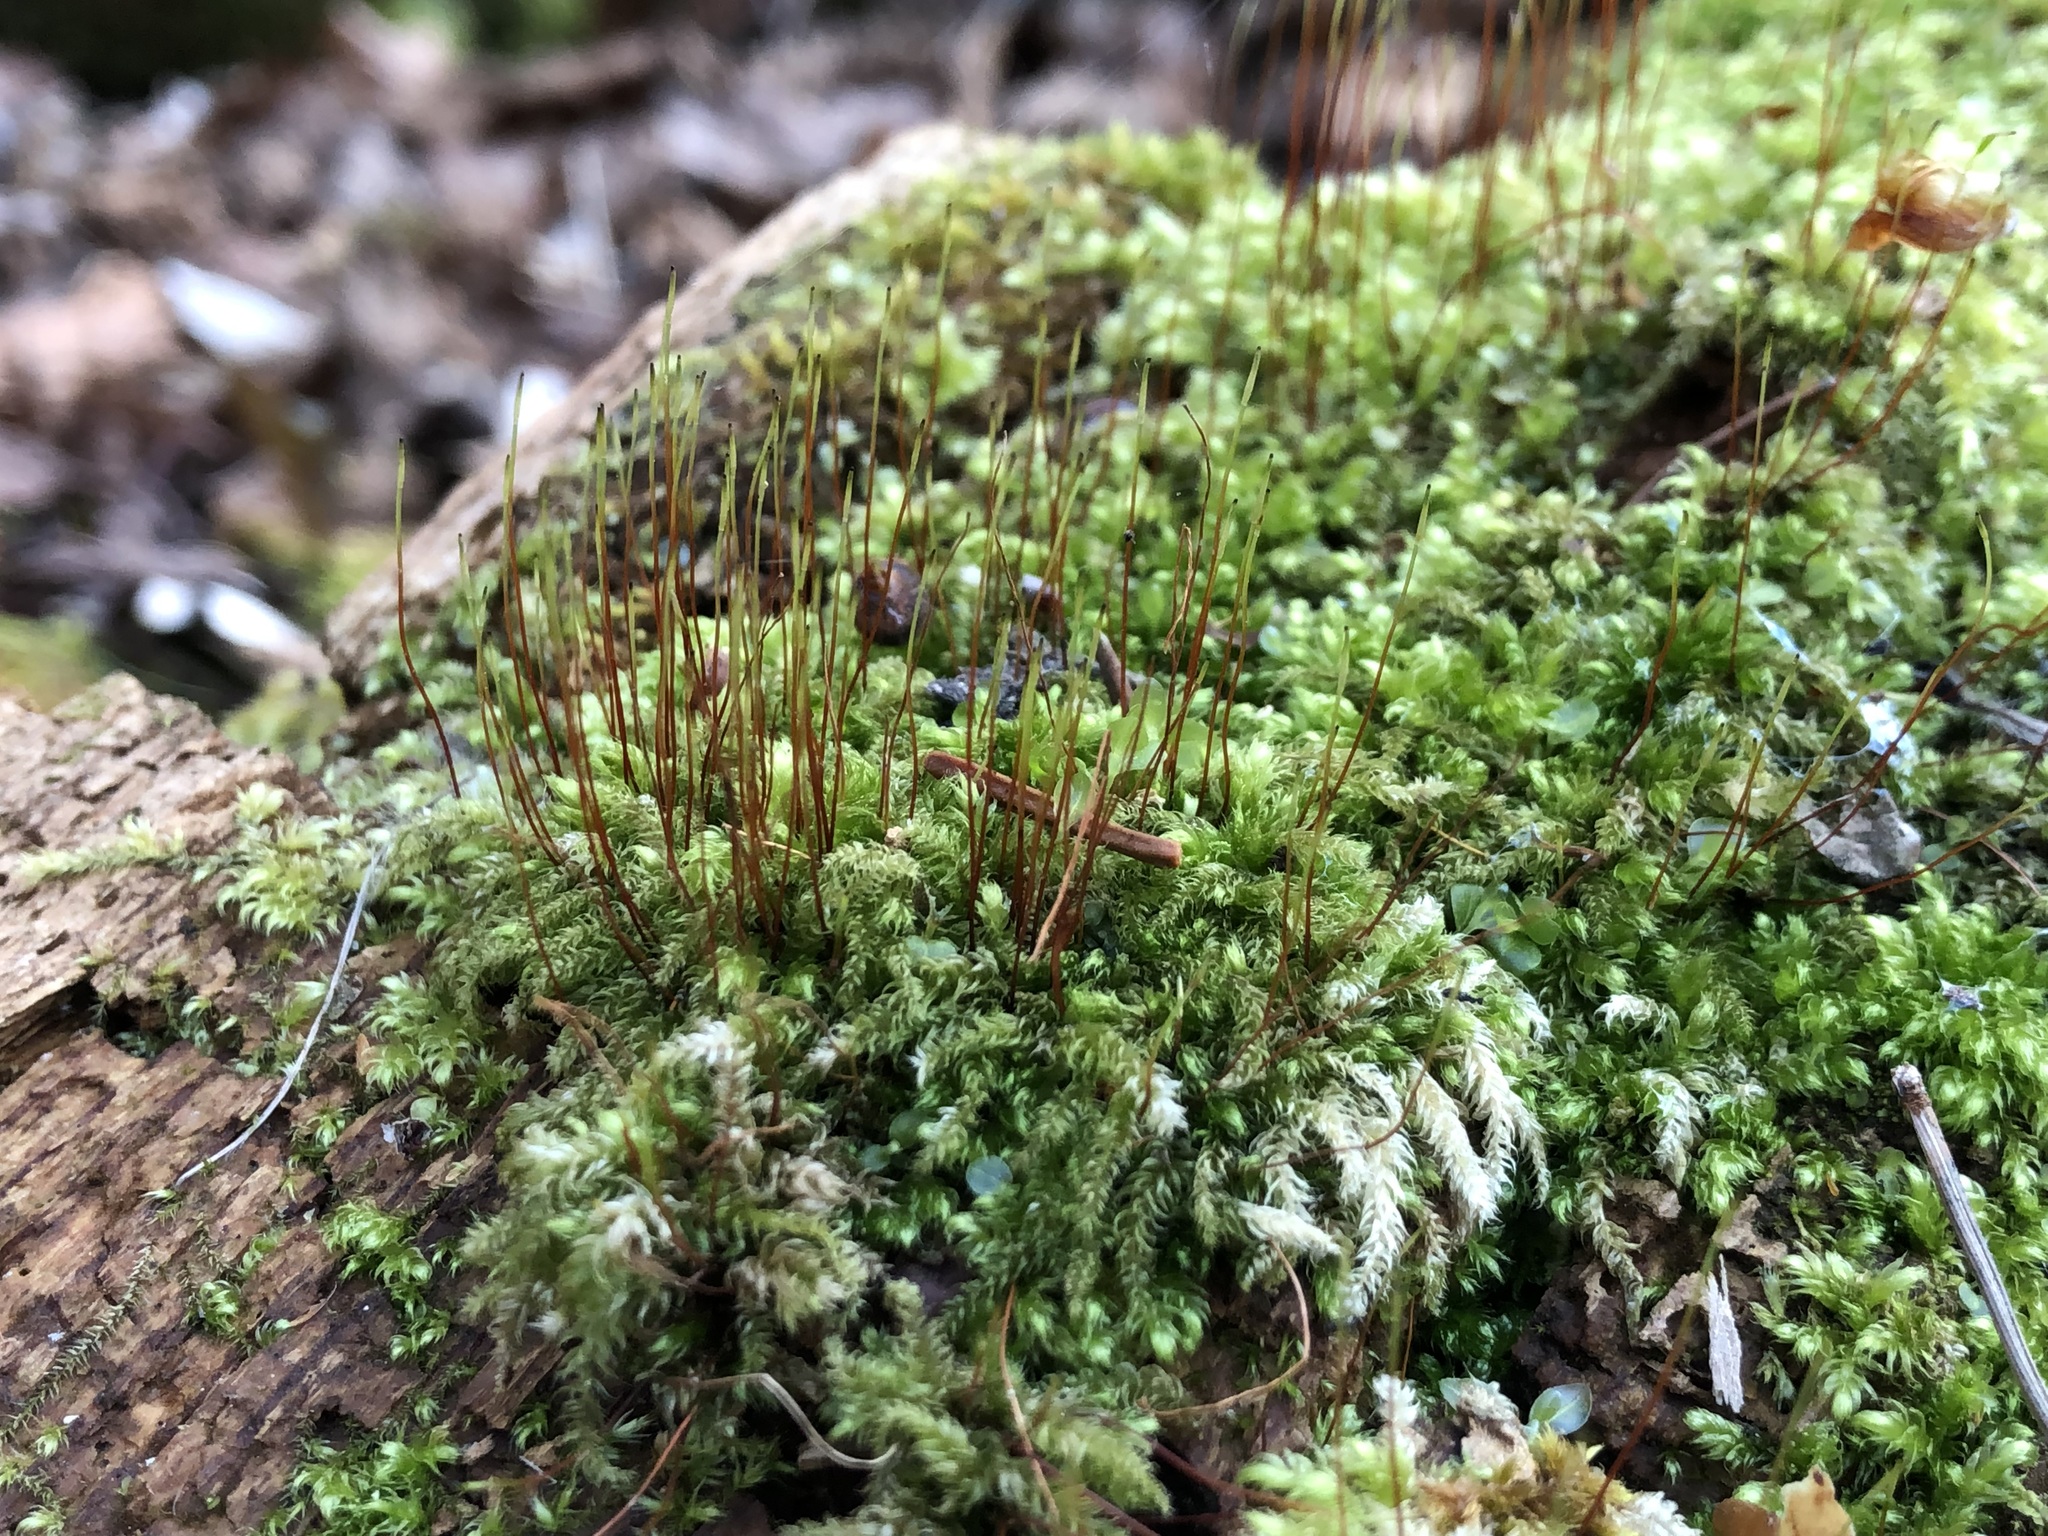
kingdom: Plantae
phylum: Bryophyta
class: Bryopsida
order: Hypnales
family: Plagiotheciaceae
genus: Herzogiella
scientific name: Herzogiella seligeri
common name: Silesian feather-moss
